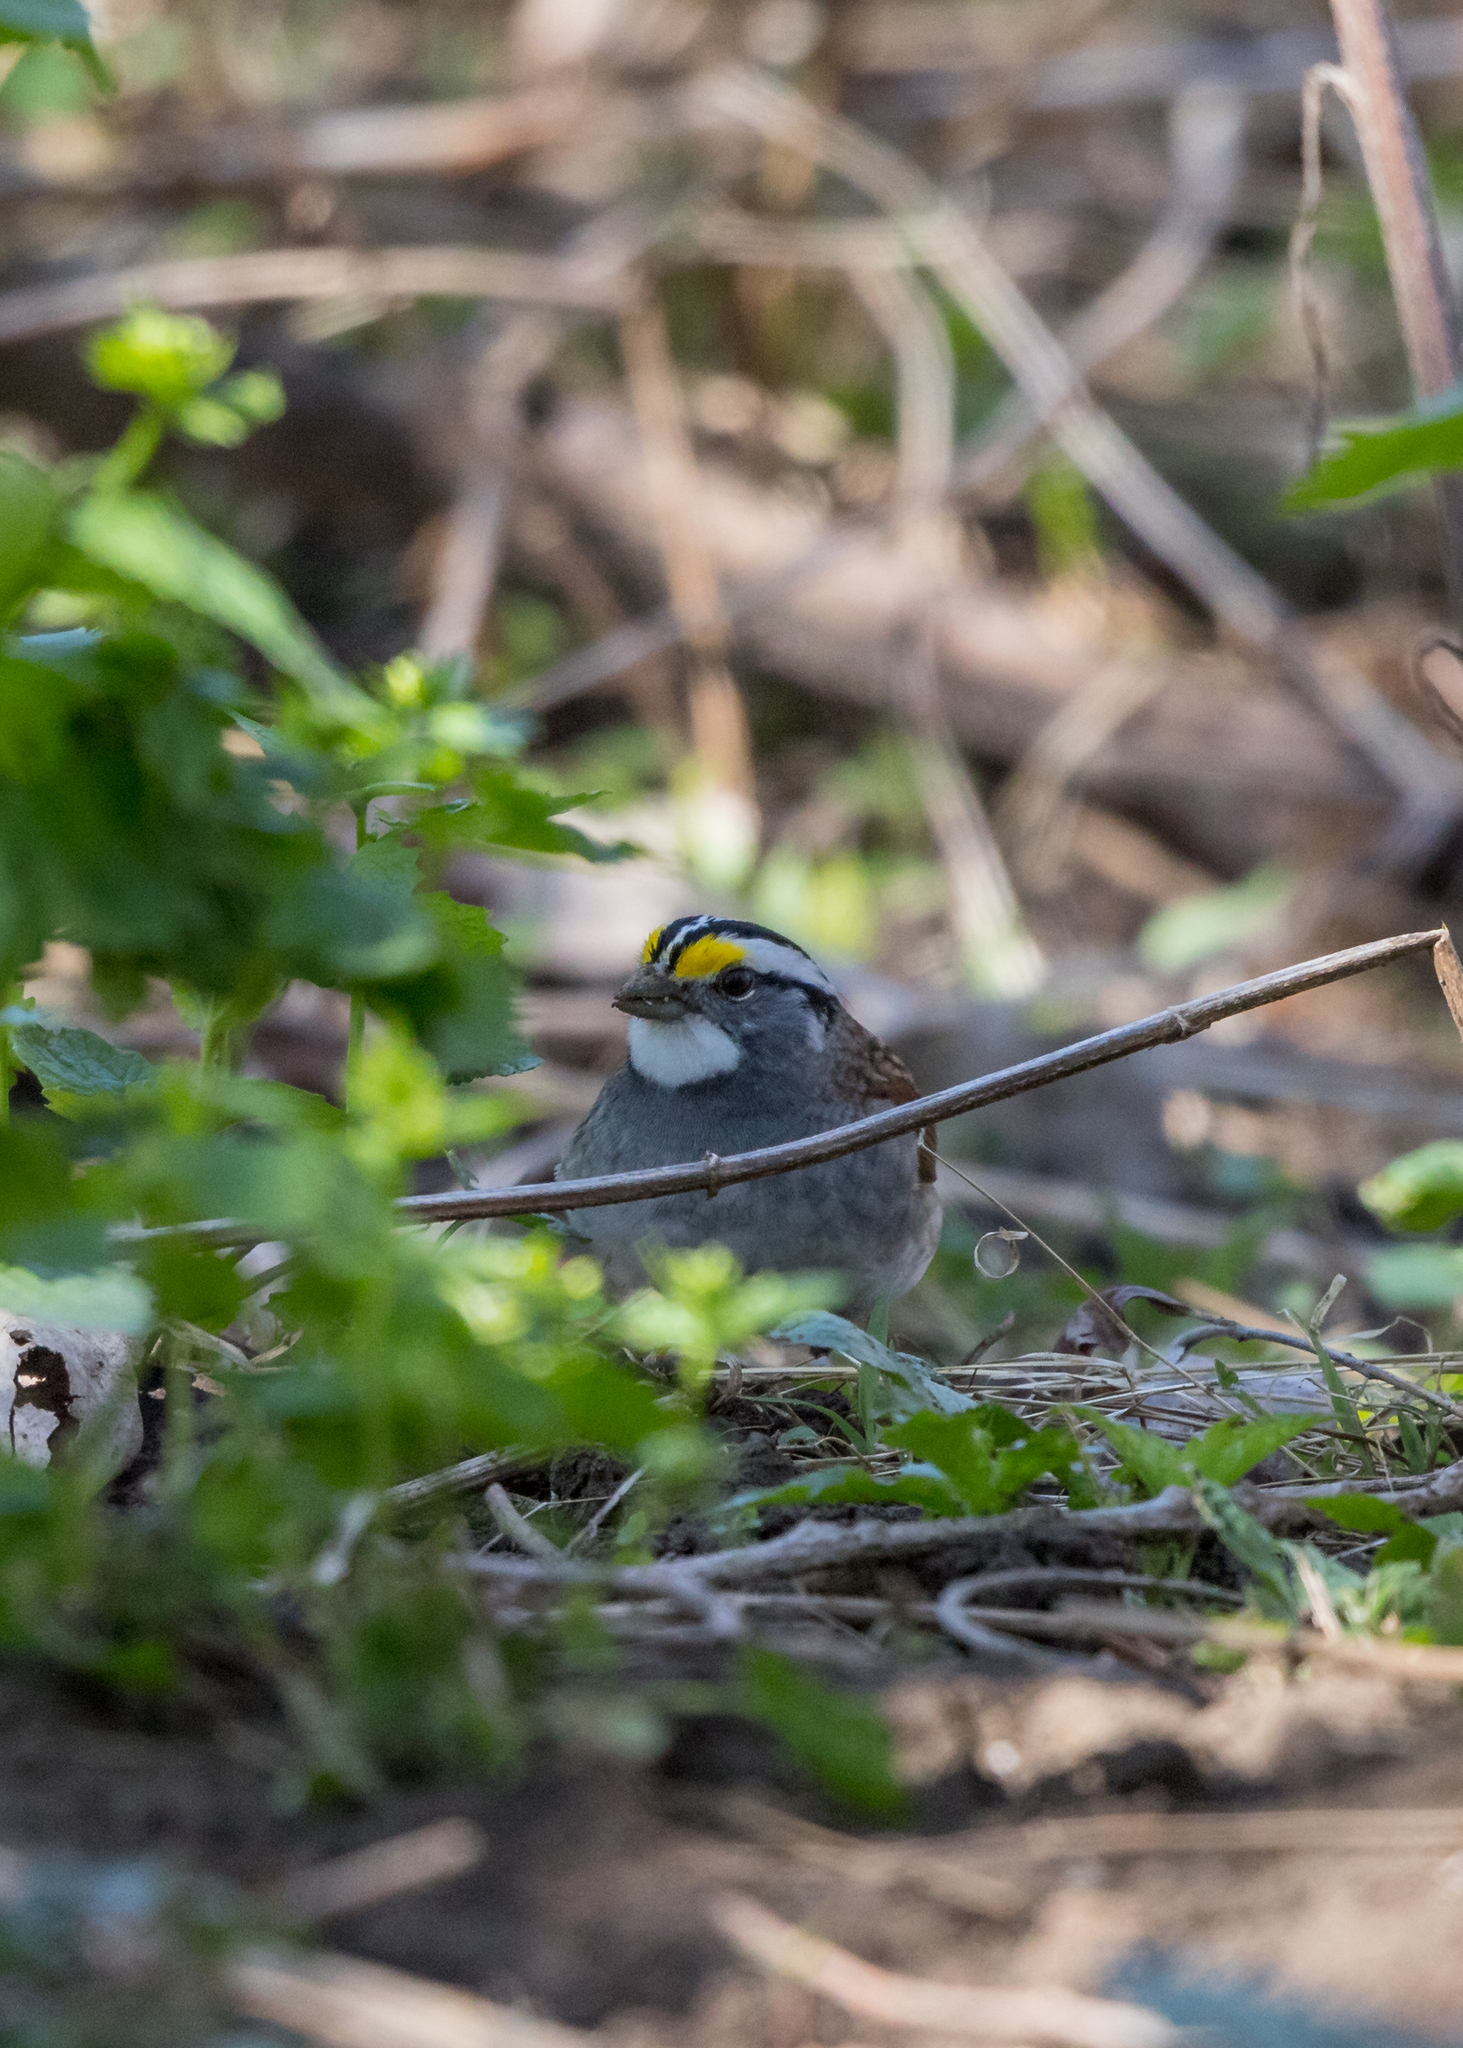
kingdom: Animalia
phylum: Chordata
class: Aves
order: Passeriformes
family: Passerellidae
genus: Zonotrichia
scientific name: Zonotrichia albicollis
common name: White-throated sparrow
